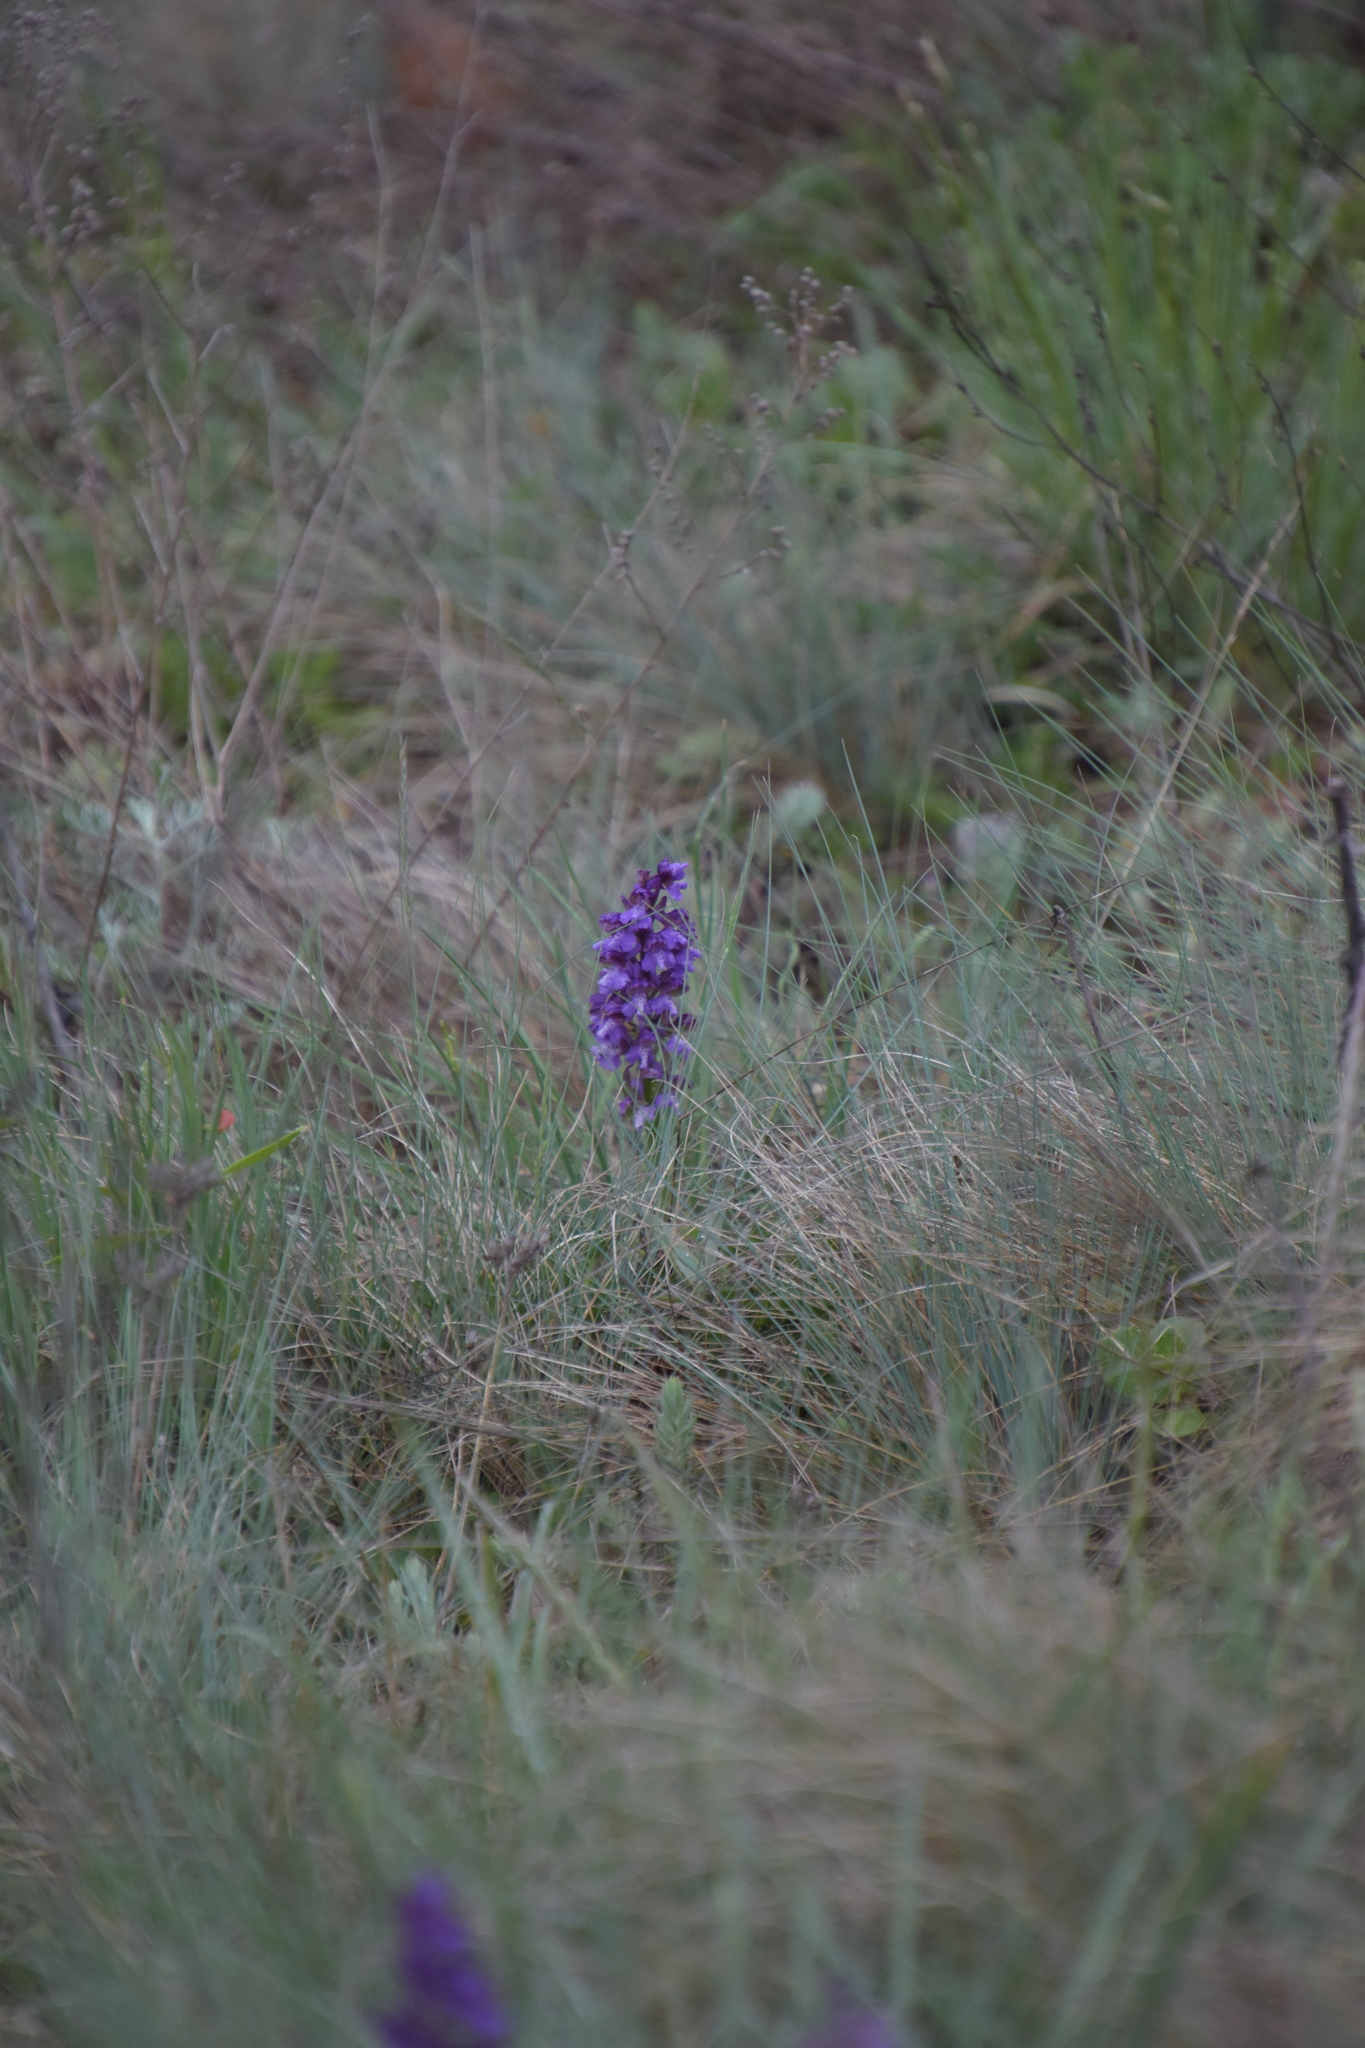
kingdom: Plantae
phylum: Tracheophyta
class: Liliopsida
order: Asparagales
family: Orchidaceae
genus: Anacamptis
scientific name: Anacamptis morio
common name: Green-winged orchid
